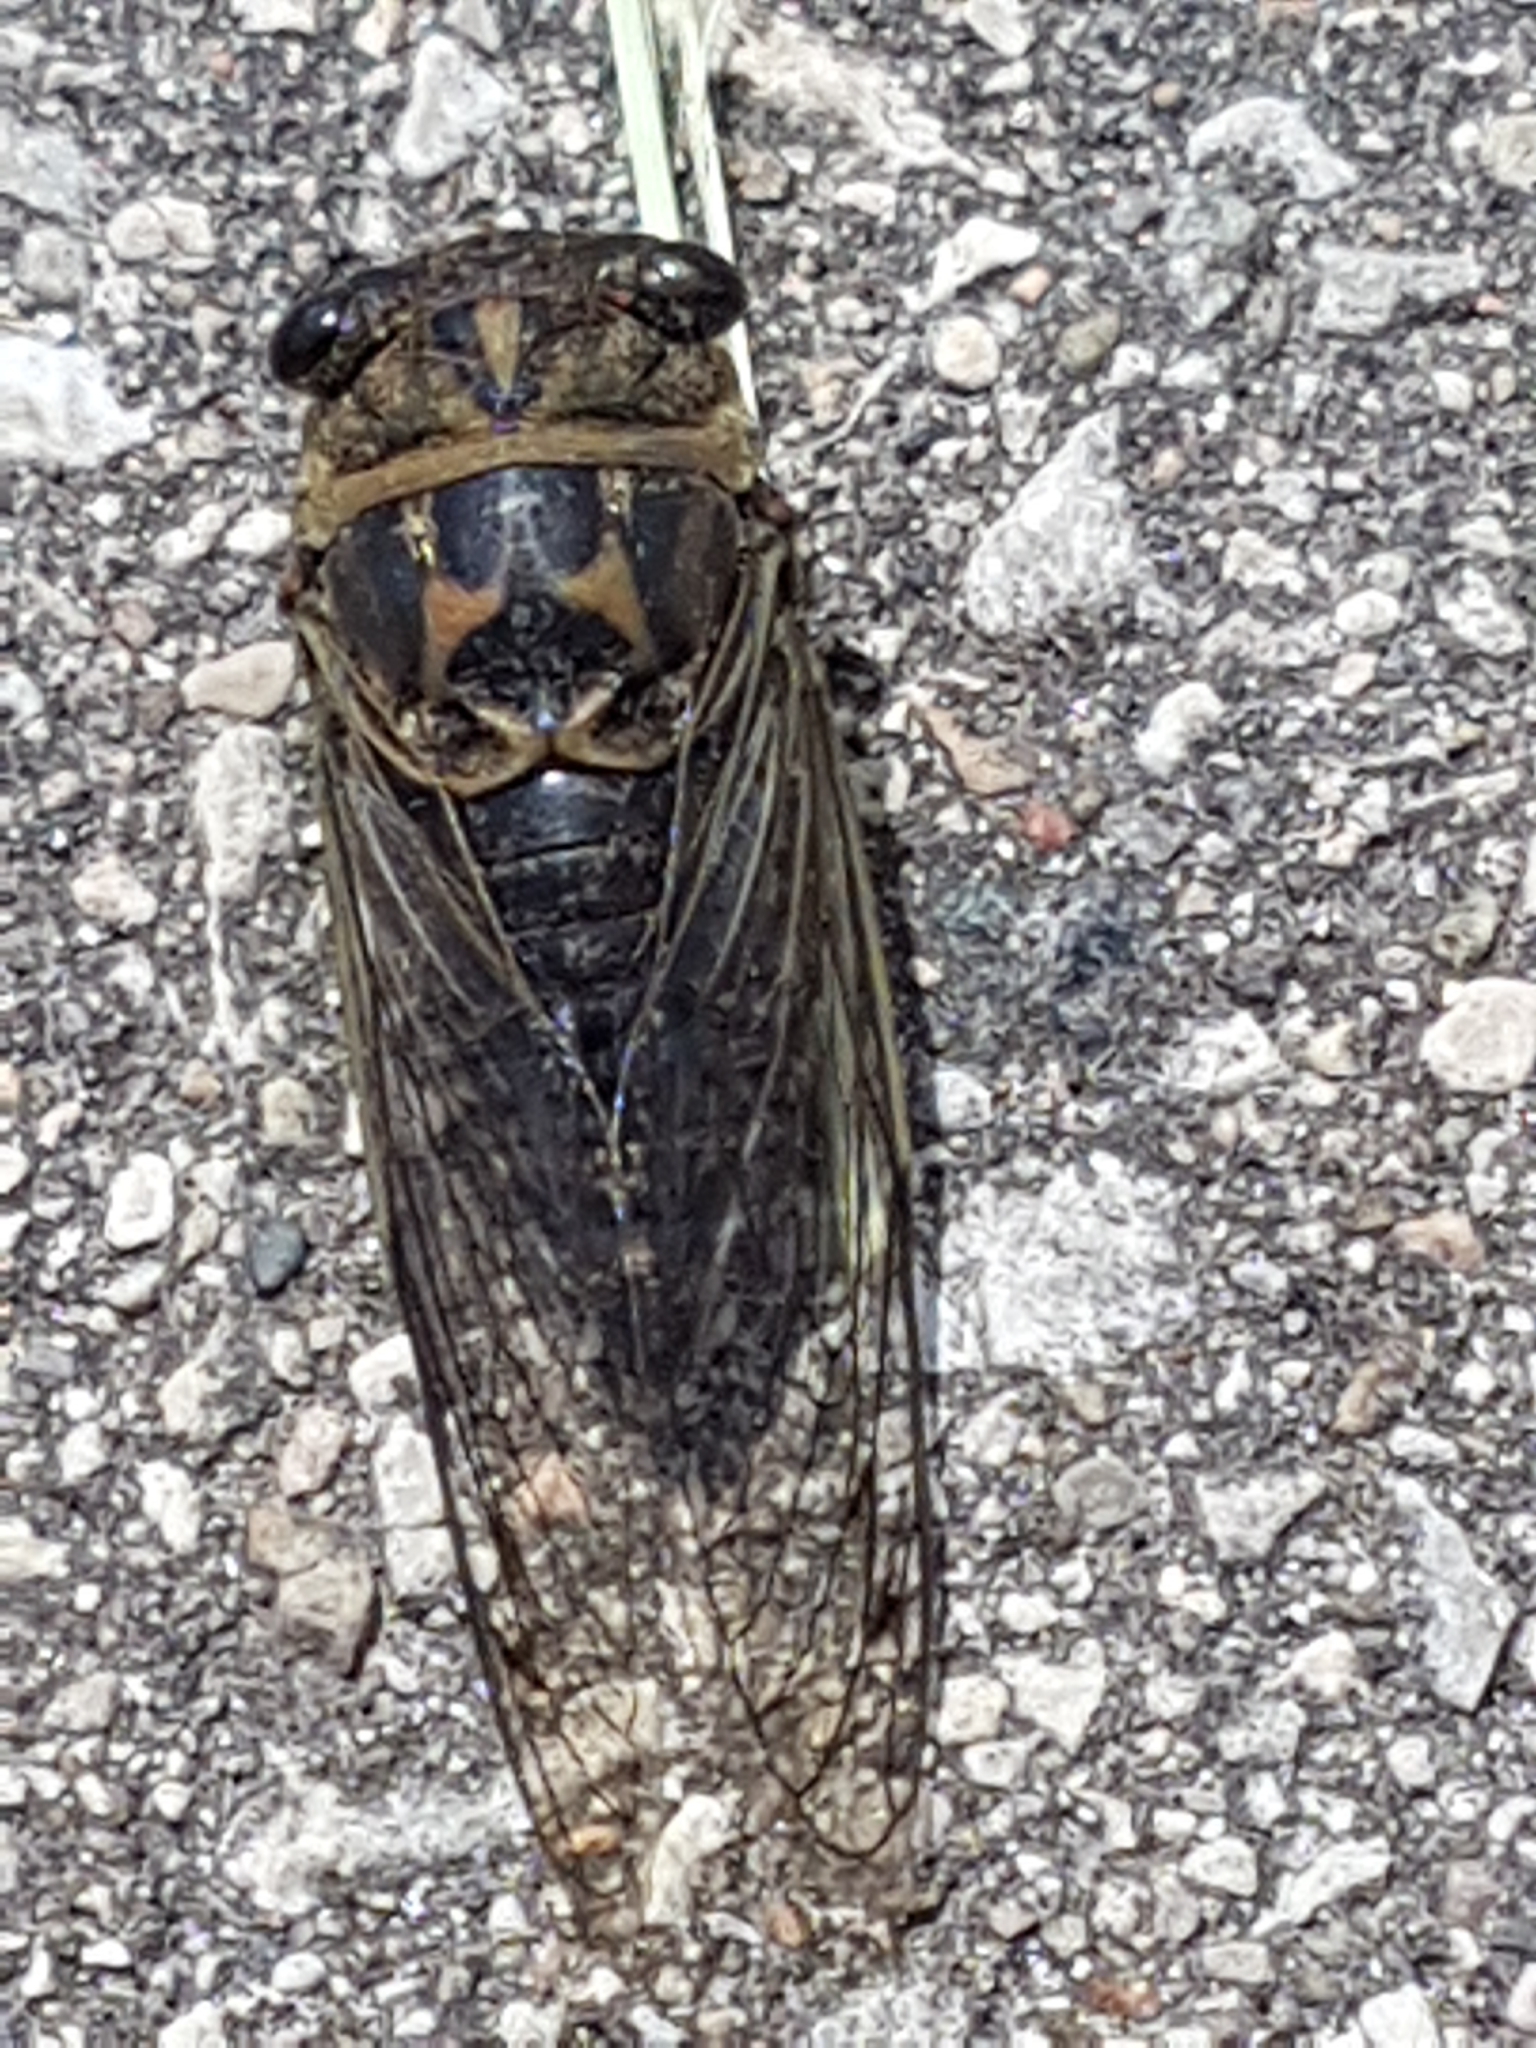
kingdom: Animalia
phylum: Arthropoda
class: Insecta
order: Hemiptera
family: Cicadidae
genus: Neotibicen
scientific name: Neotibicen canicularis
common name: God-day cicada
